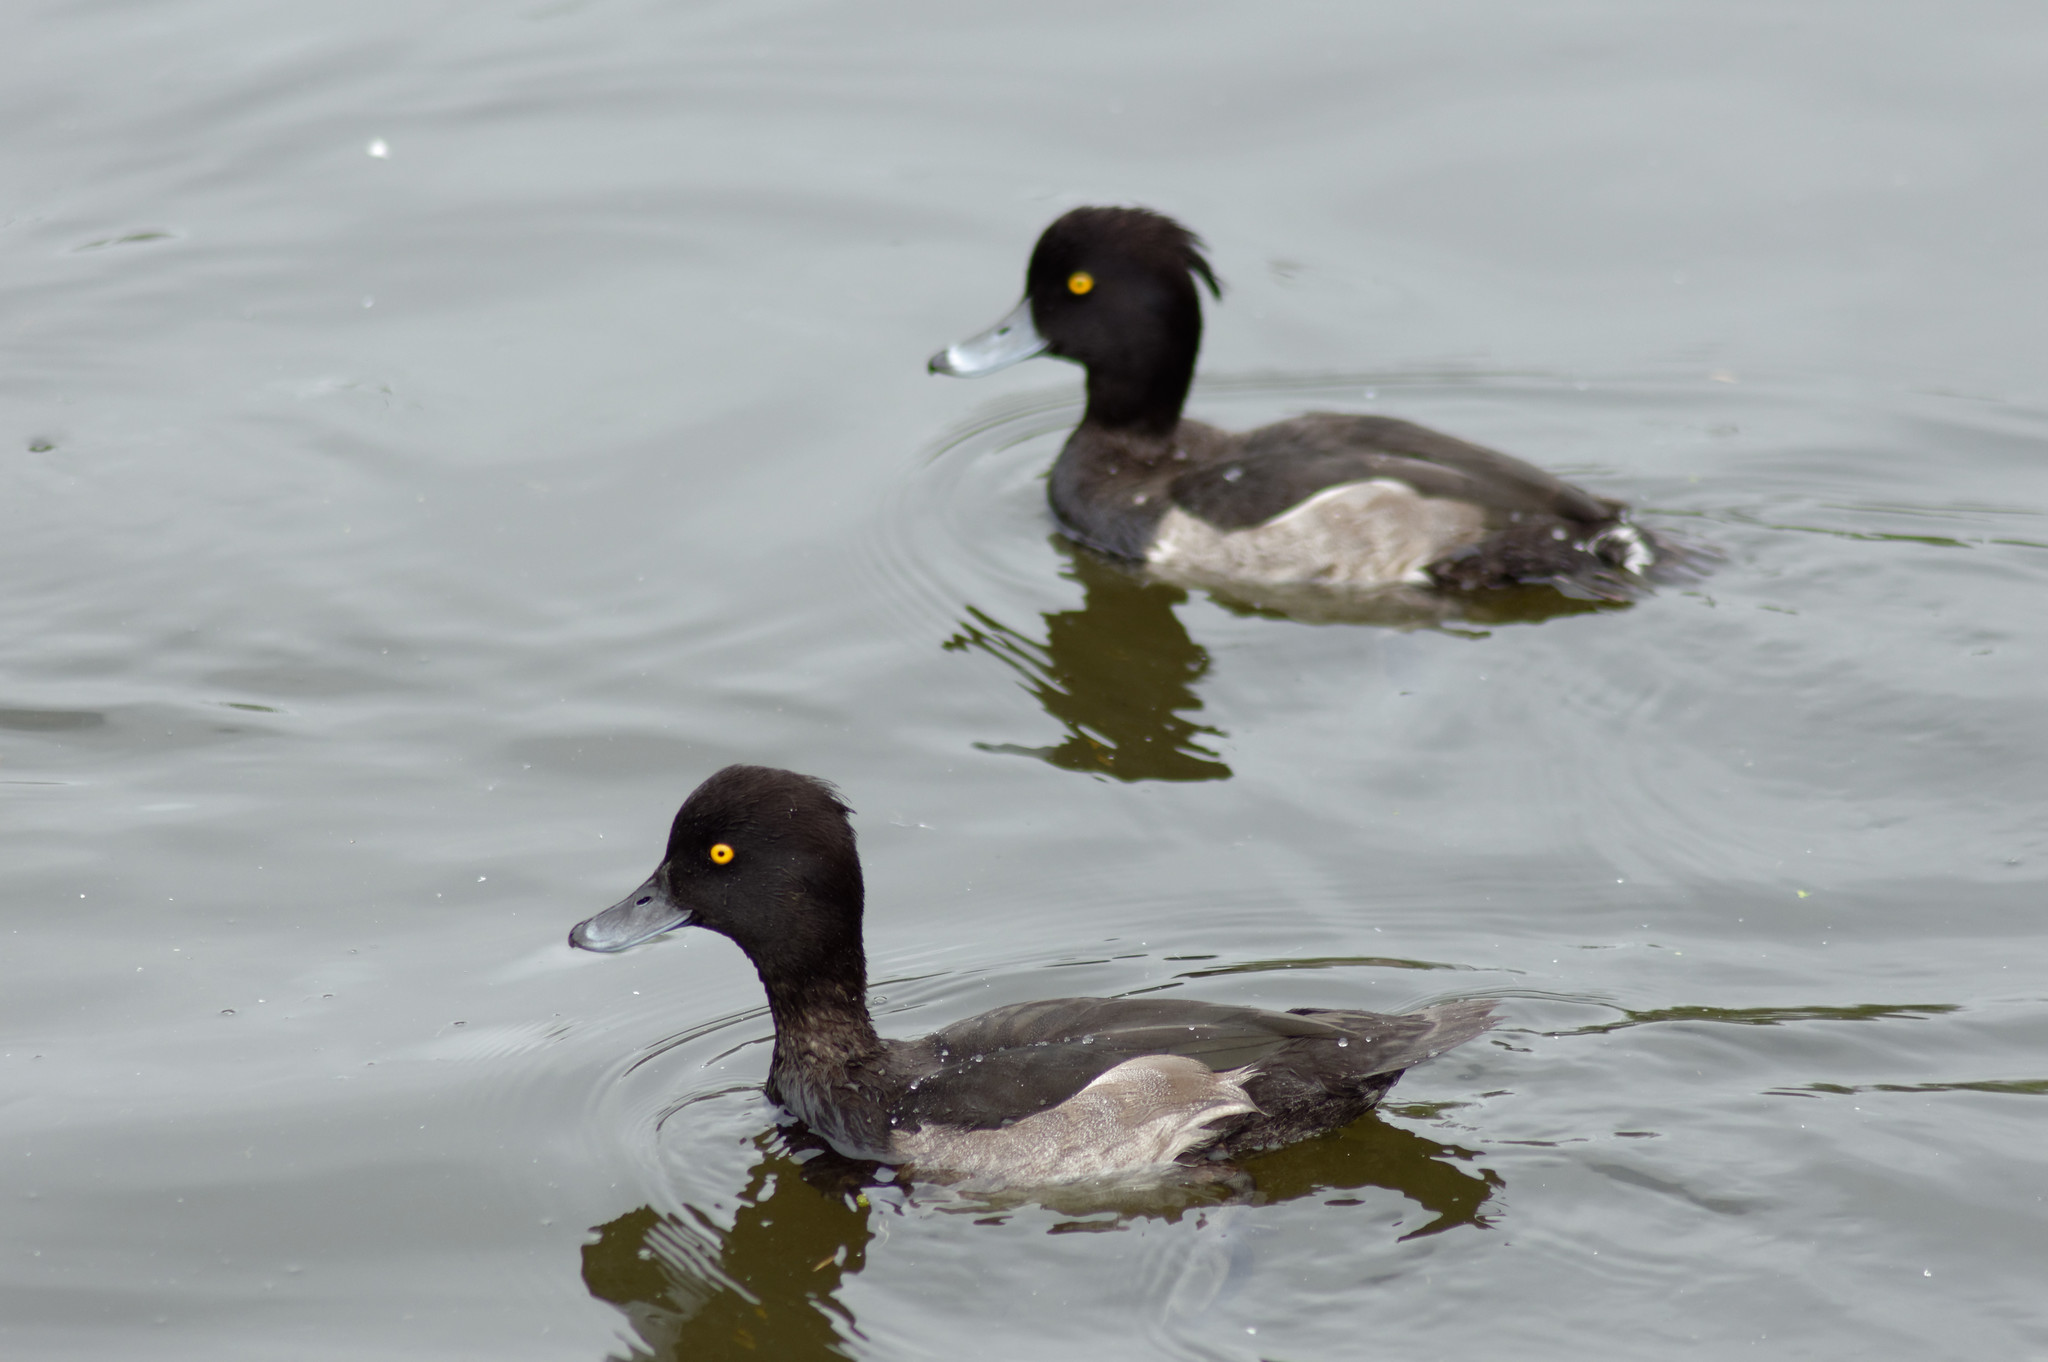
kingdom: Animalia
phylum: Chordata
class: Aves
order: Anseriformes
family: Anatidae
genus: Aythya
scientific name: Aythya fuligula
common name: Tufted duck
